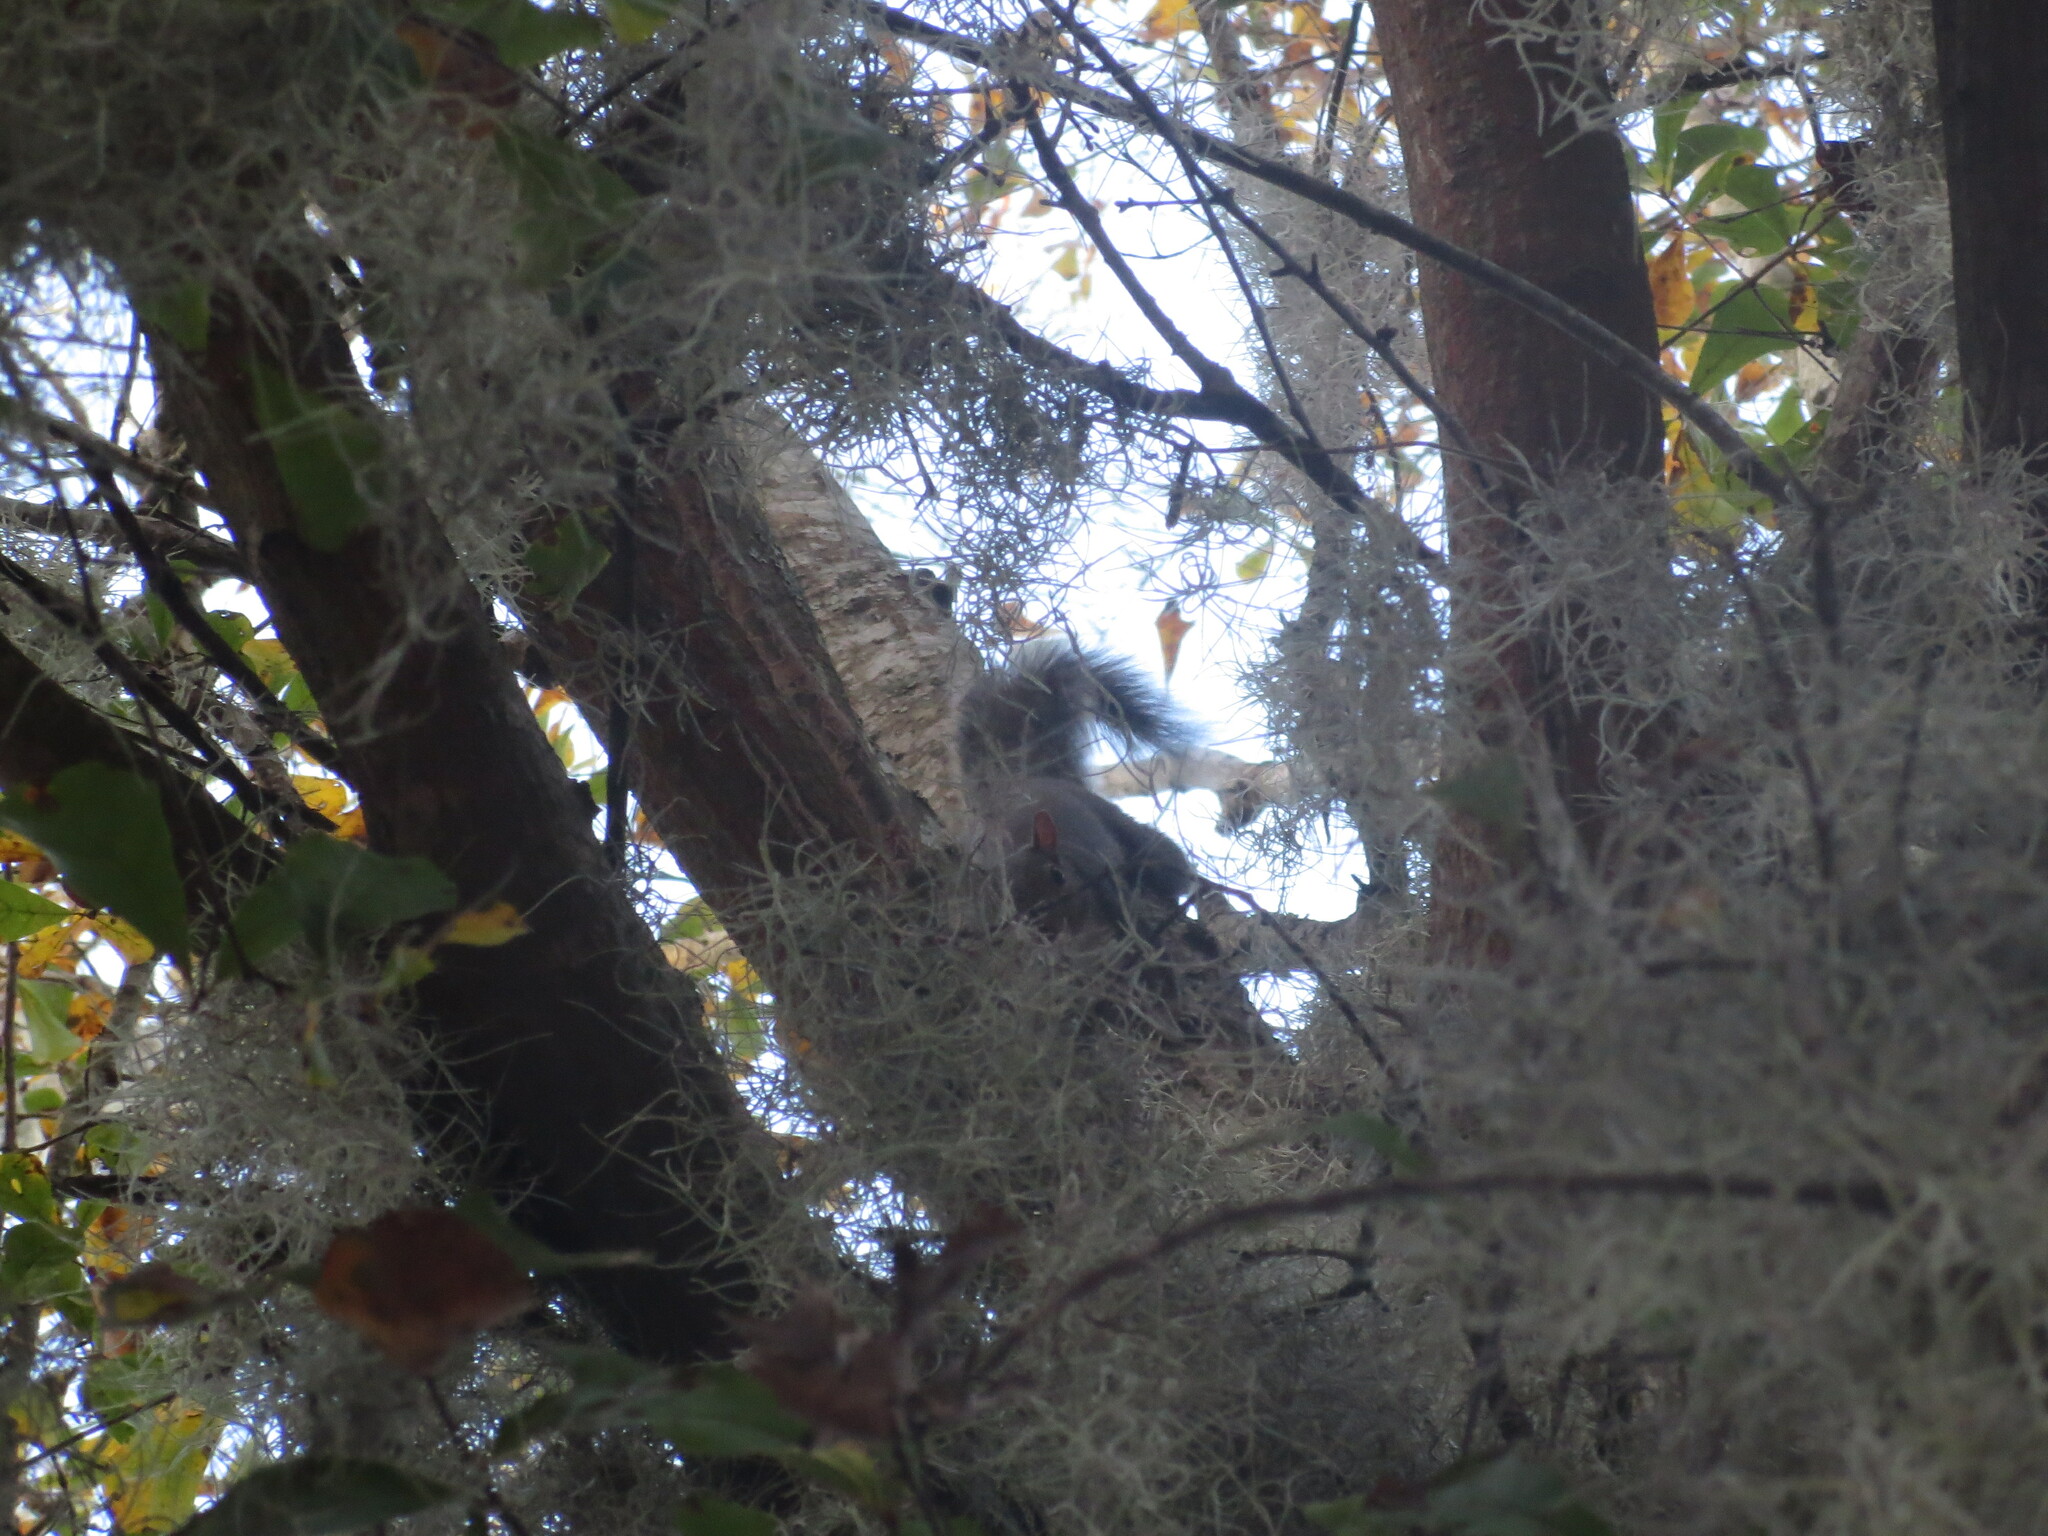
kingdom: Animalia
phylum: Chordata
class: Mammalia
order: Rodentia
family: Sciuridae
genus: Sciurus
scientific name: Sciurus carolinensis
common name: Eastern gray squirrel
